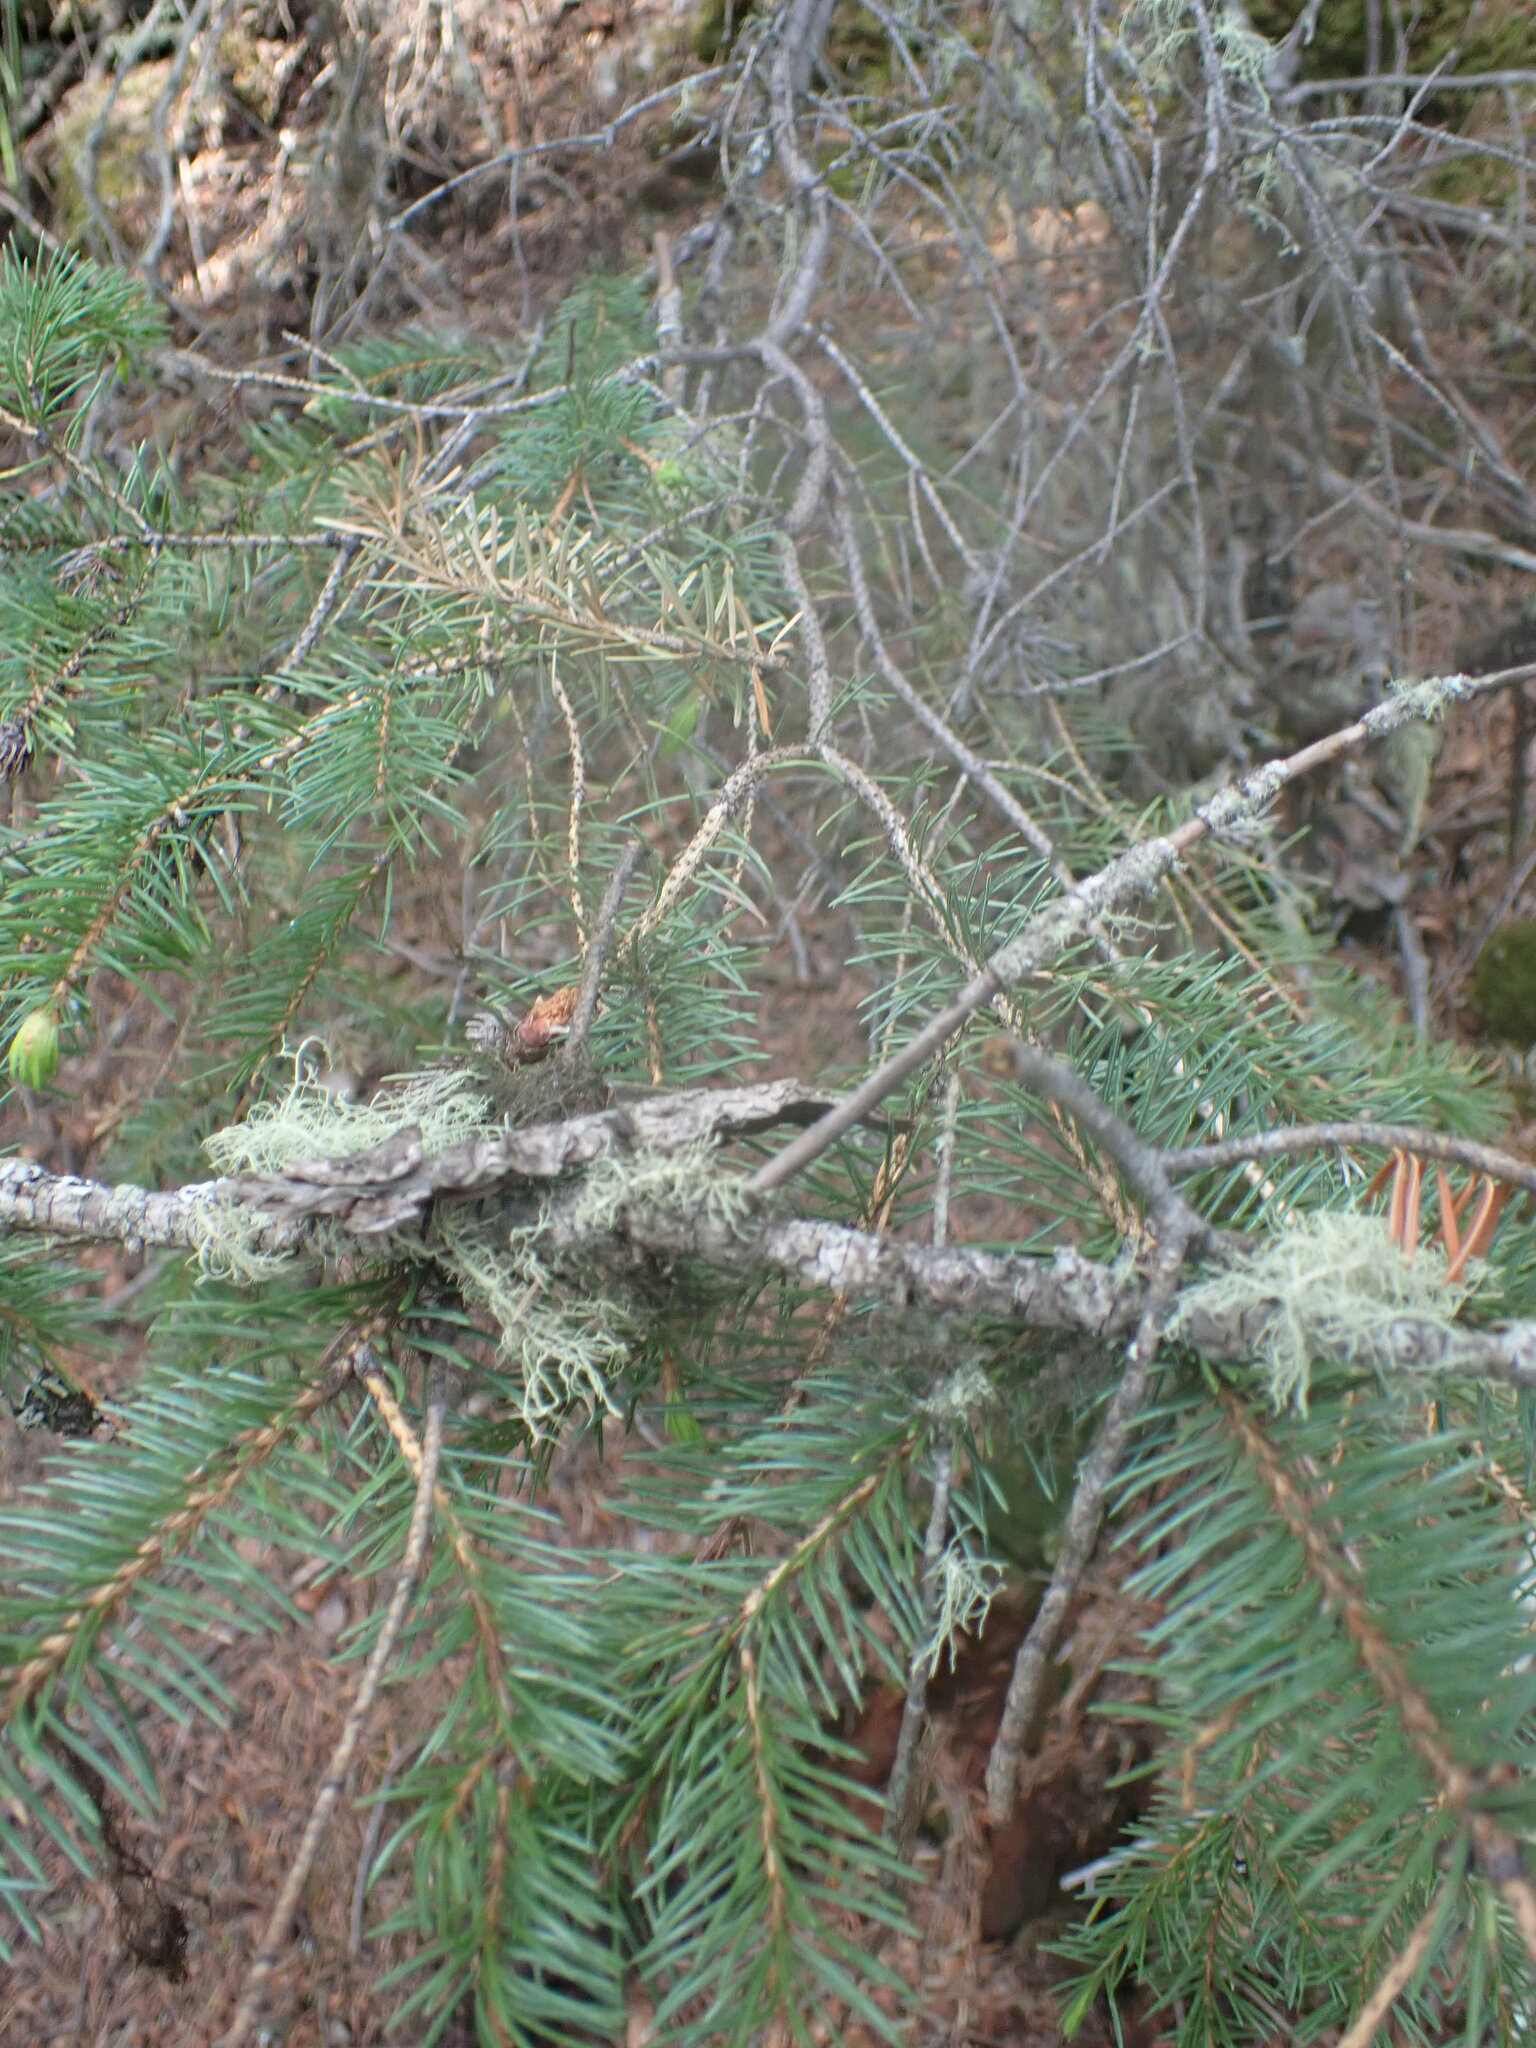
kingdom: Plantae
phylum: Tracheophyta
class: Pinopsida
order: Pinales
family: Pinaceae
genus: Pseudotsuga
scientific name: Pseudotsuga menziesii
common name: Douglas fir
